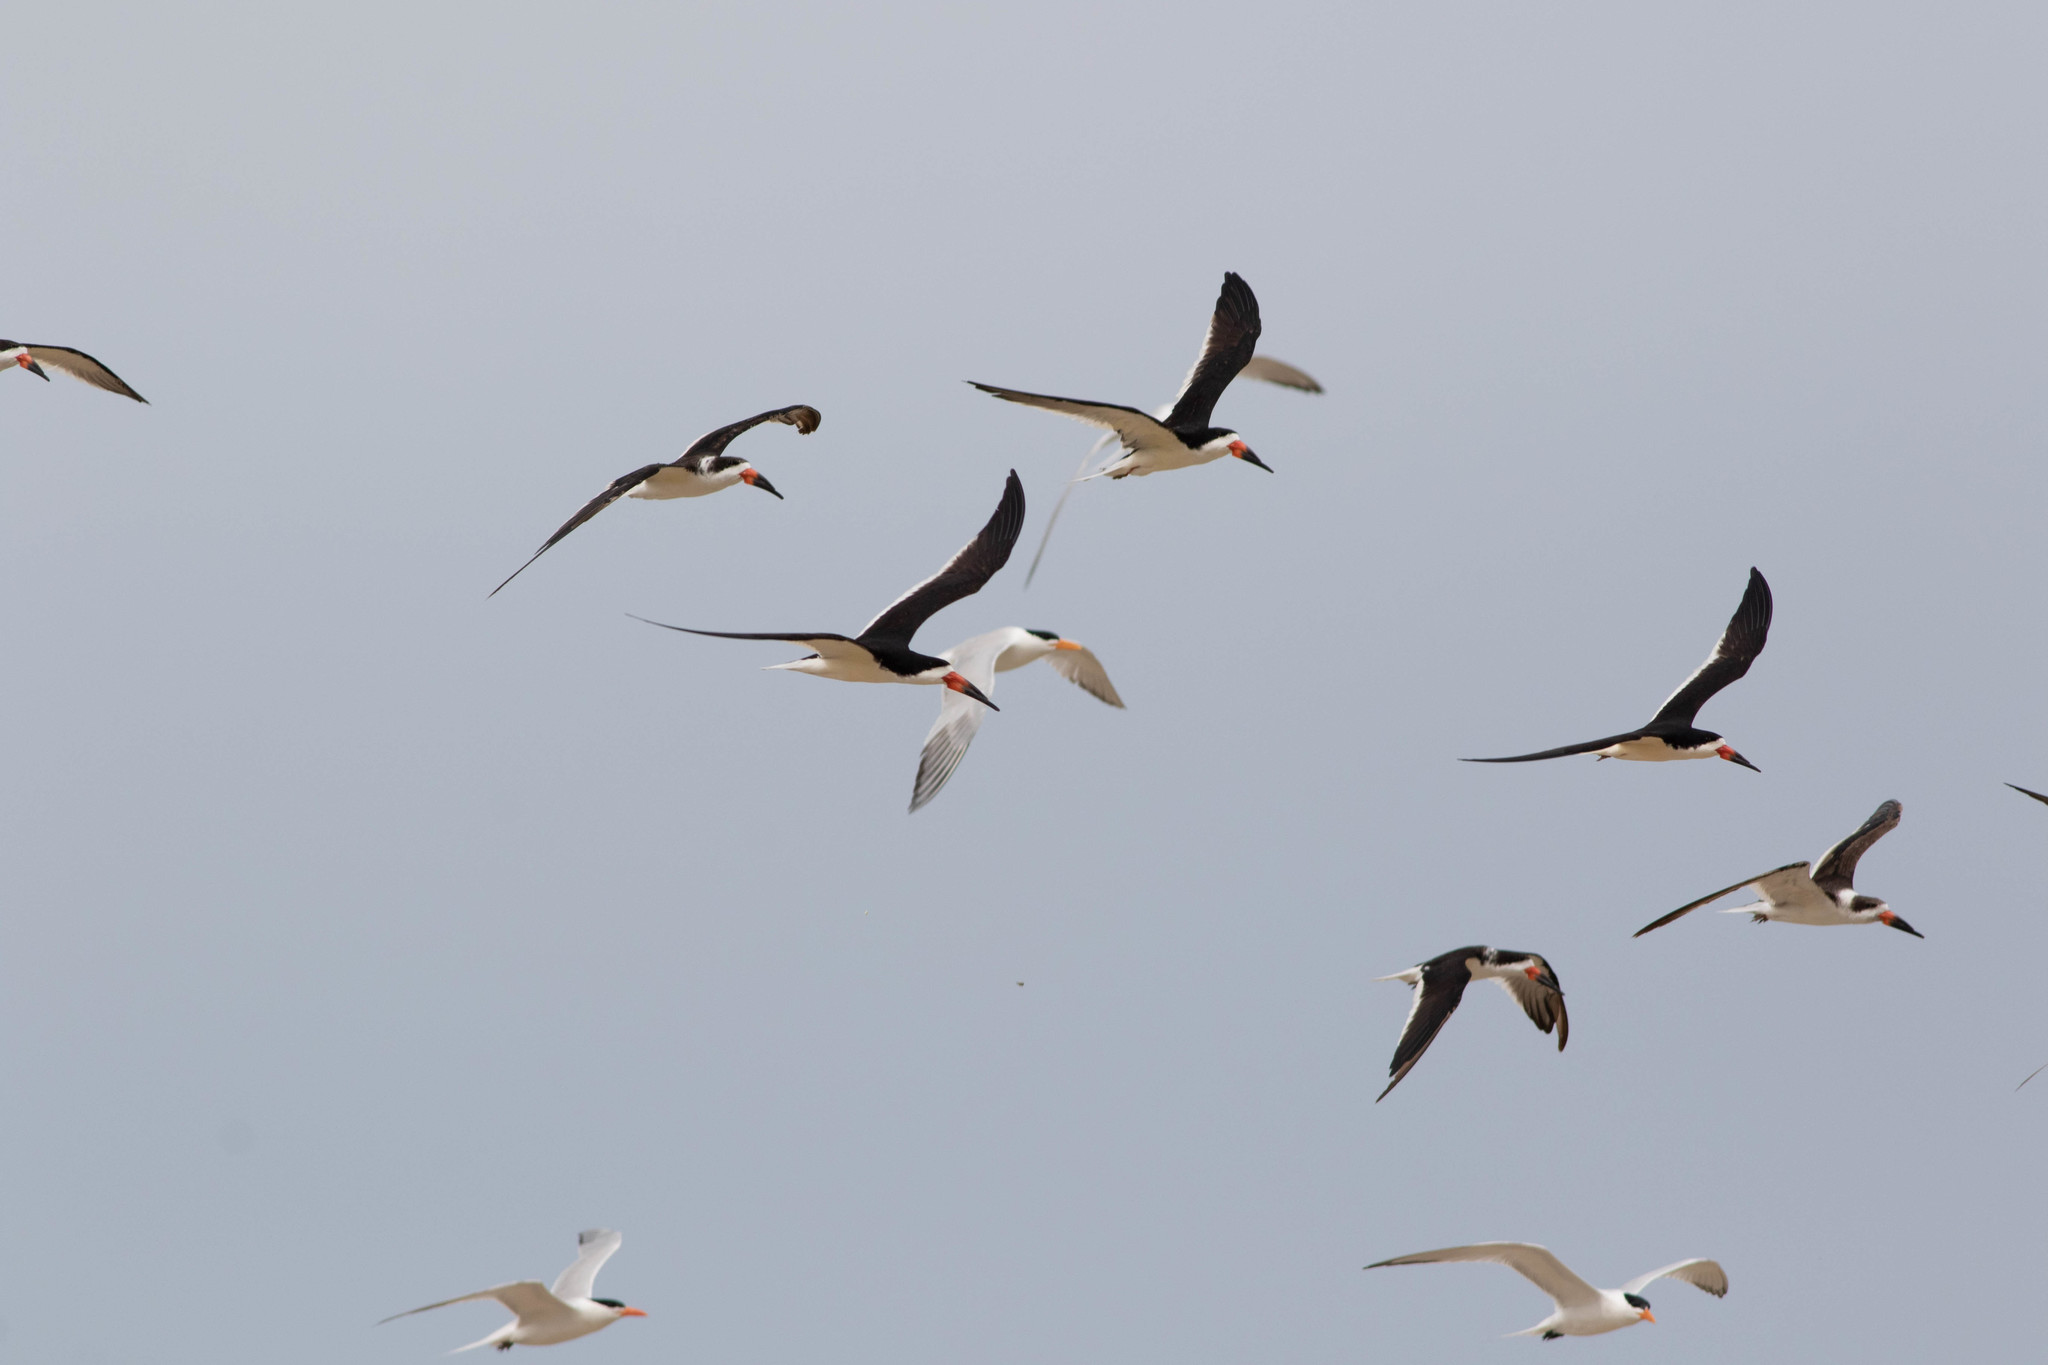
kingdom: Animalia
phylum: Chordata
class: Aves
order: Charadriiformes
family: Laridae
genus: Rynchops
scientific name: Rynchops niger
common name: Black skimmer
